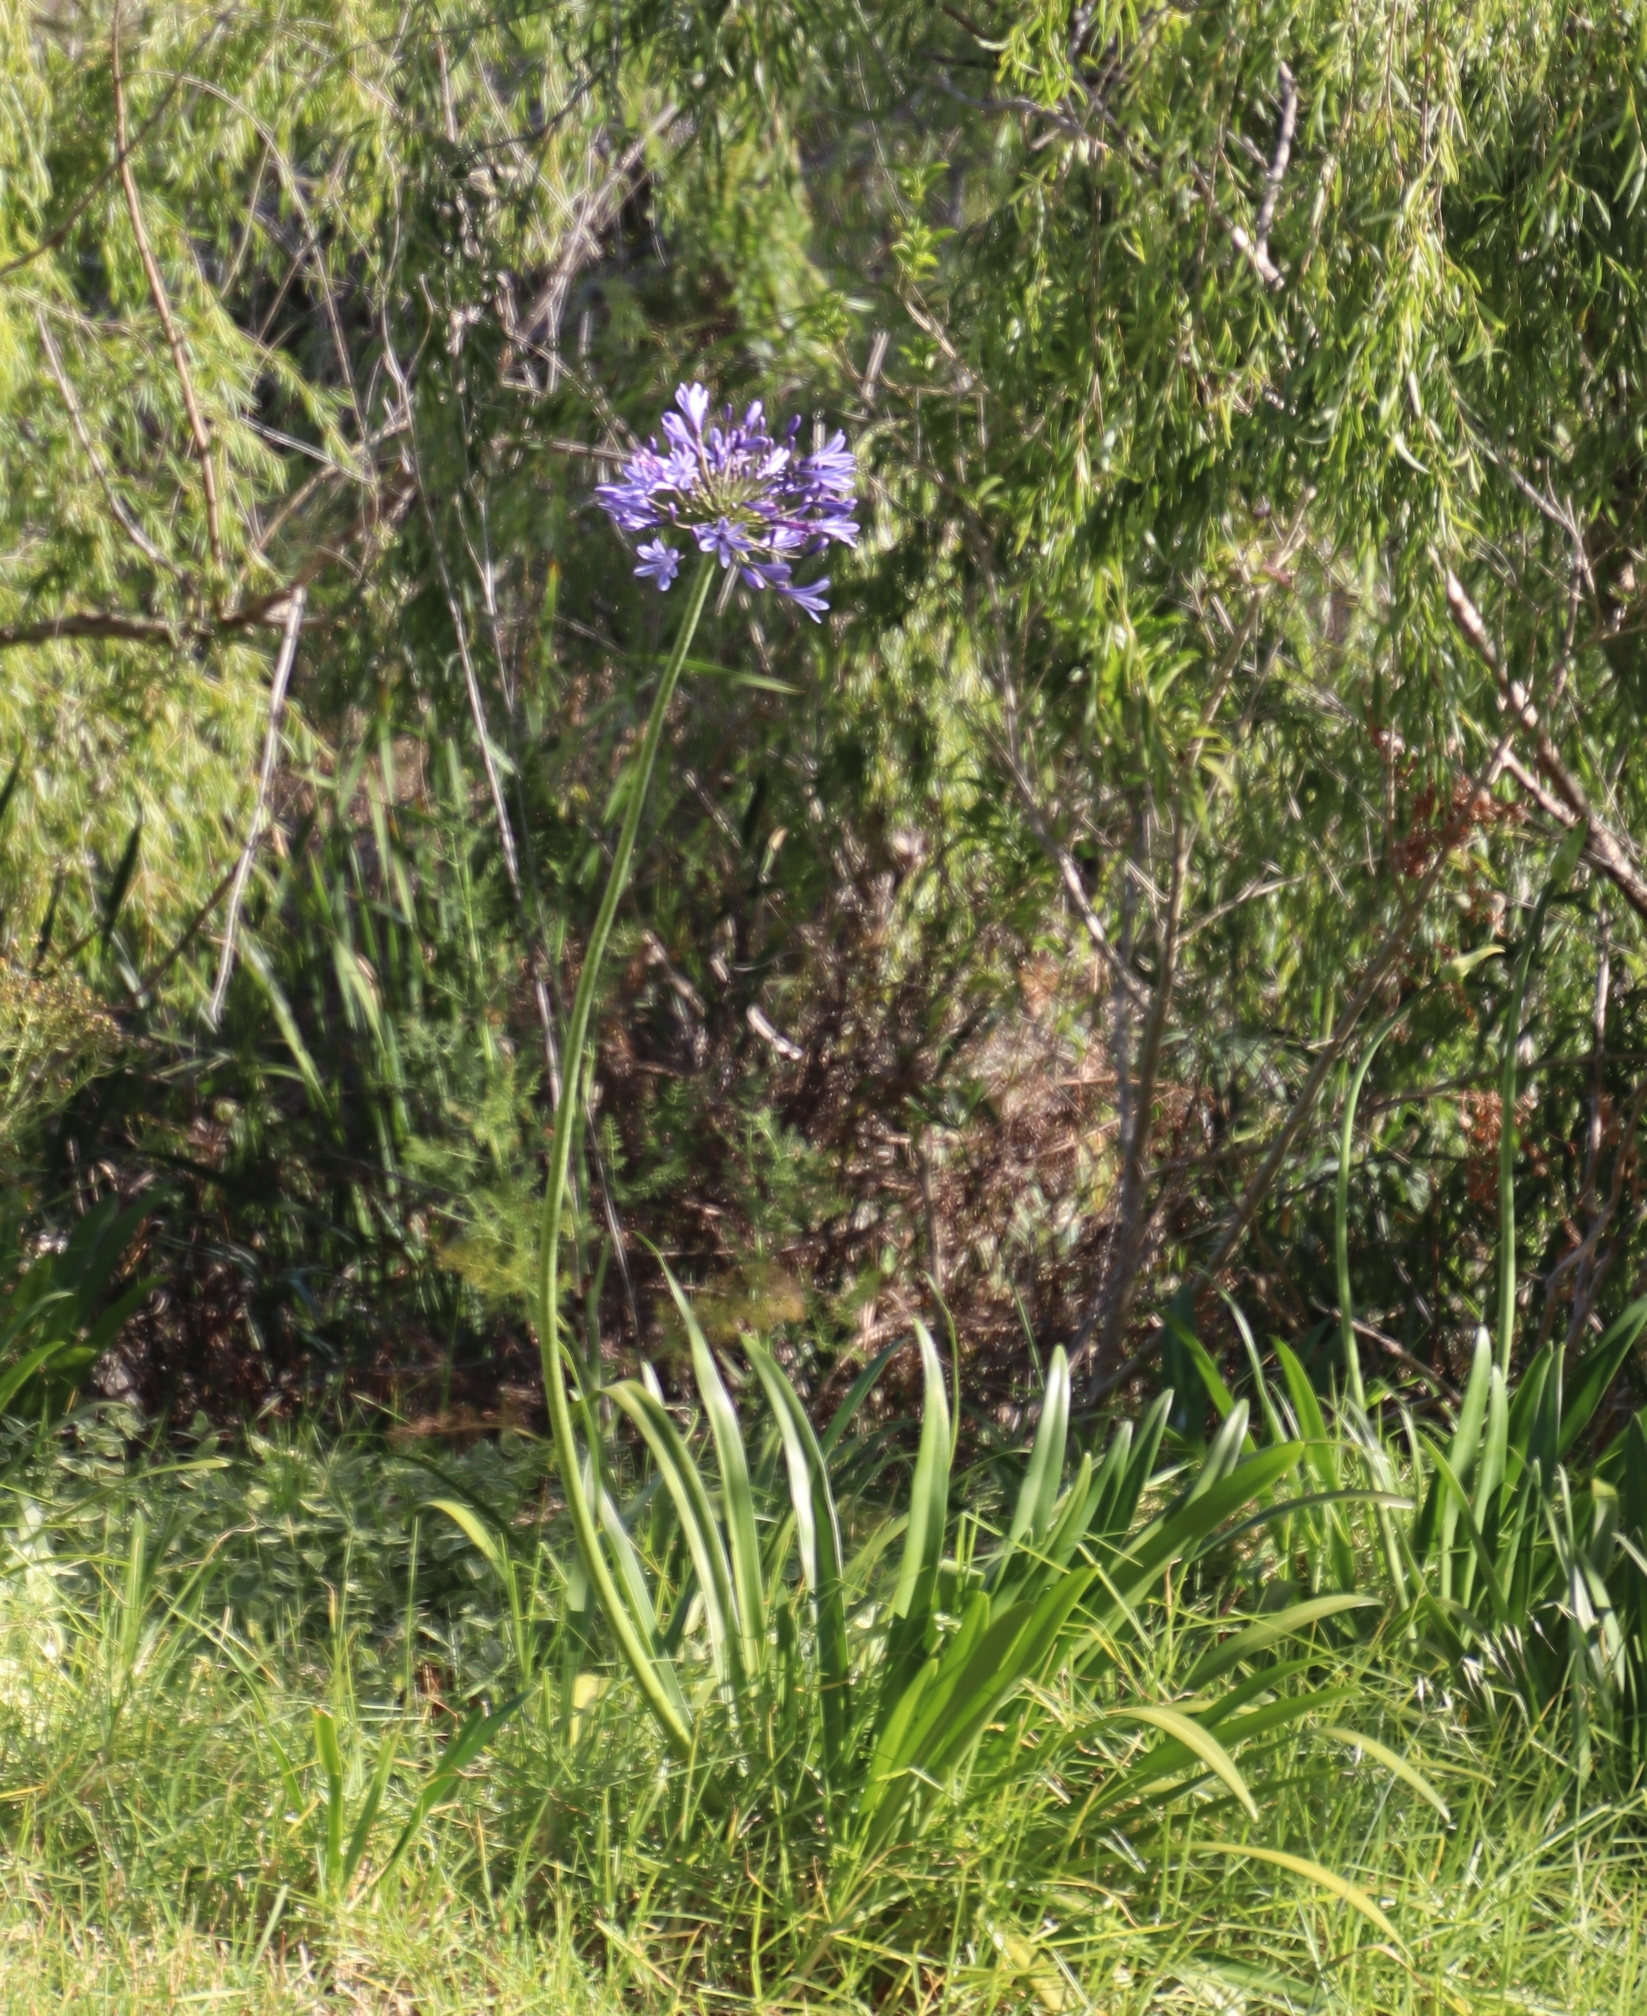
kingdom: Plantae
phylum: Tracheophyta
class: Liliopsida
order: Asparagales
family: Amaryllidaceae
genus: Agapanthus
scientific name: Agapanthus praecox
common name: African-lily
